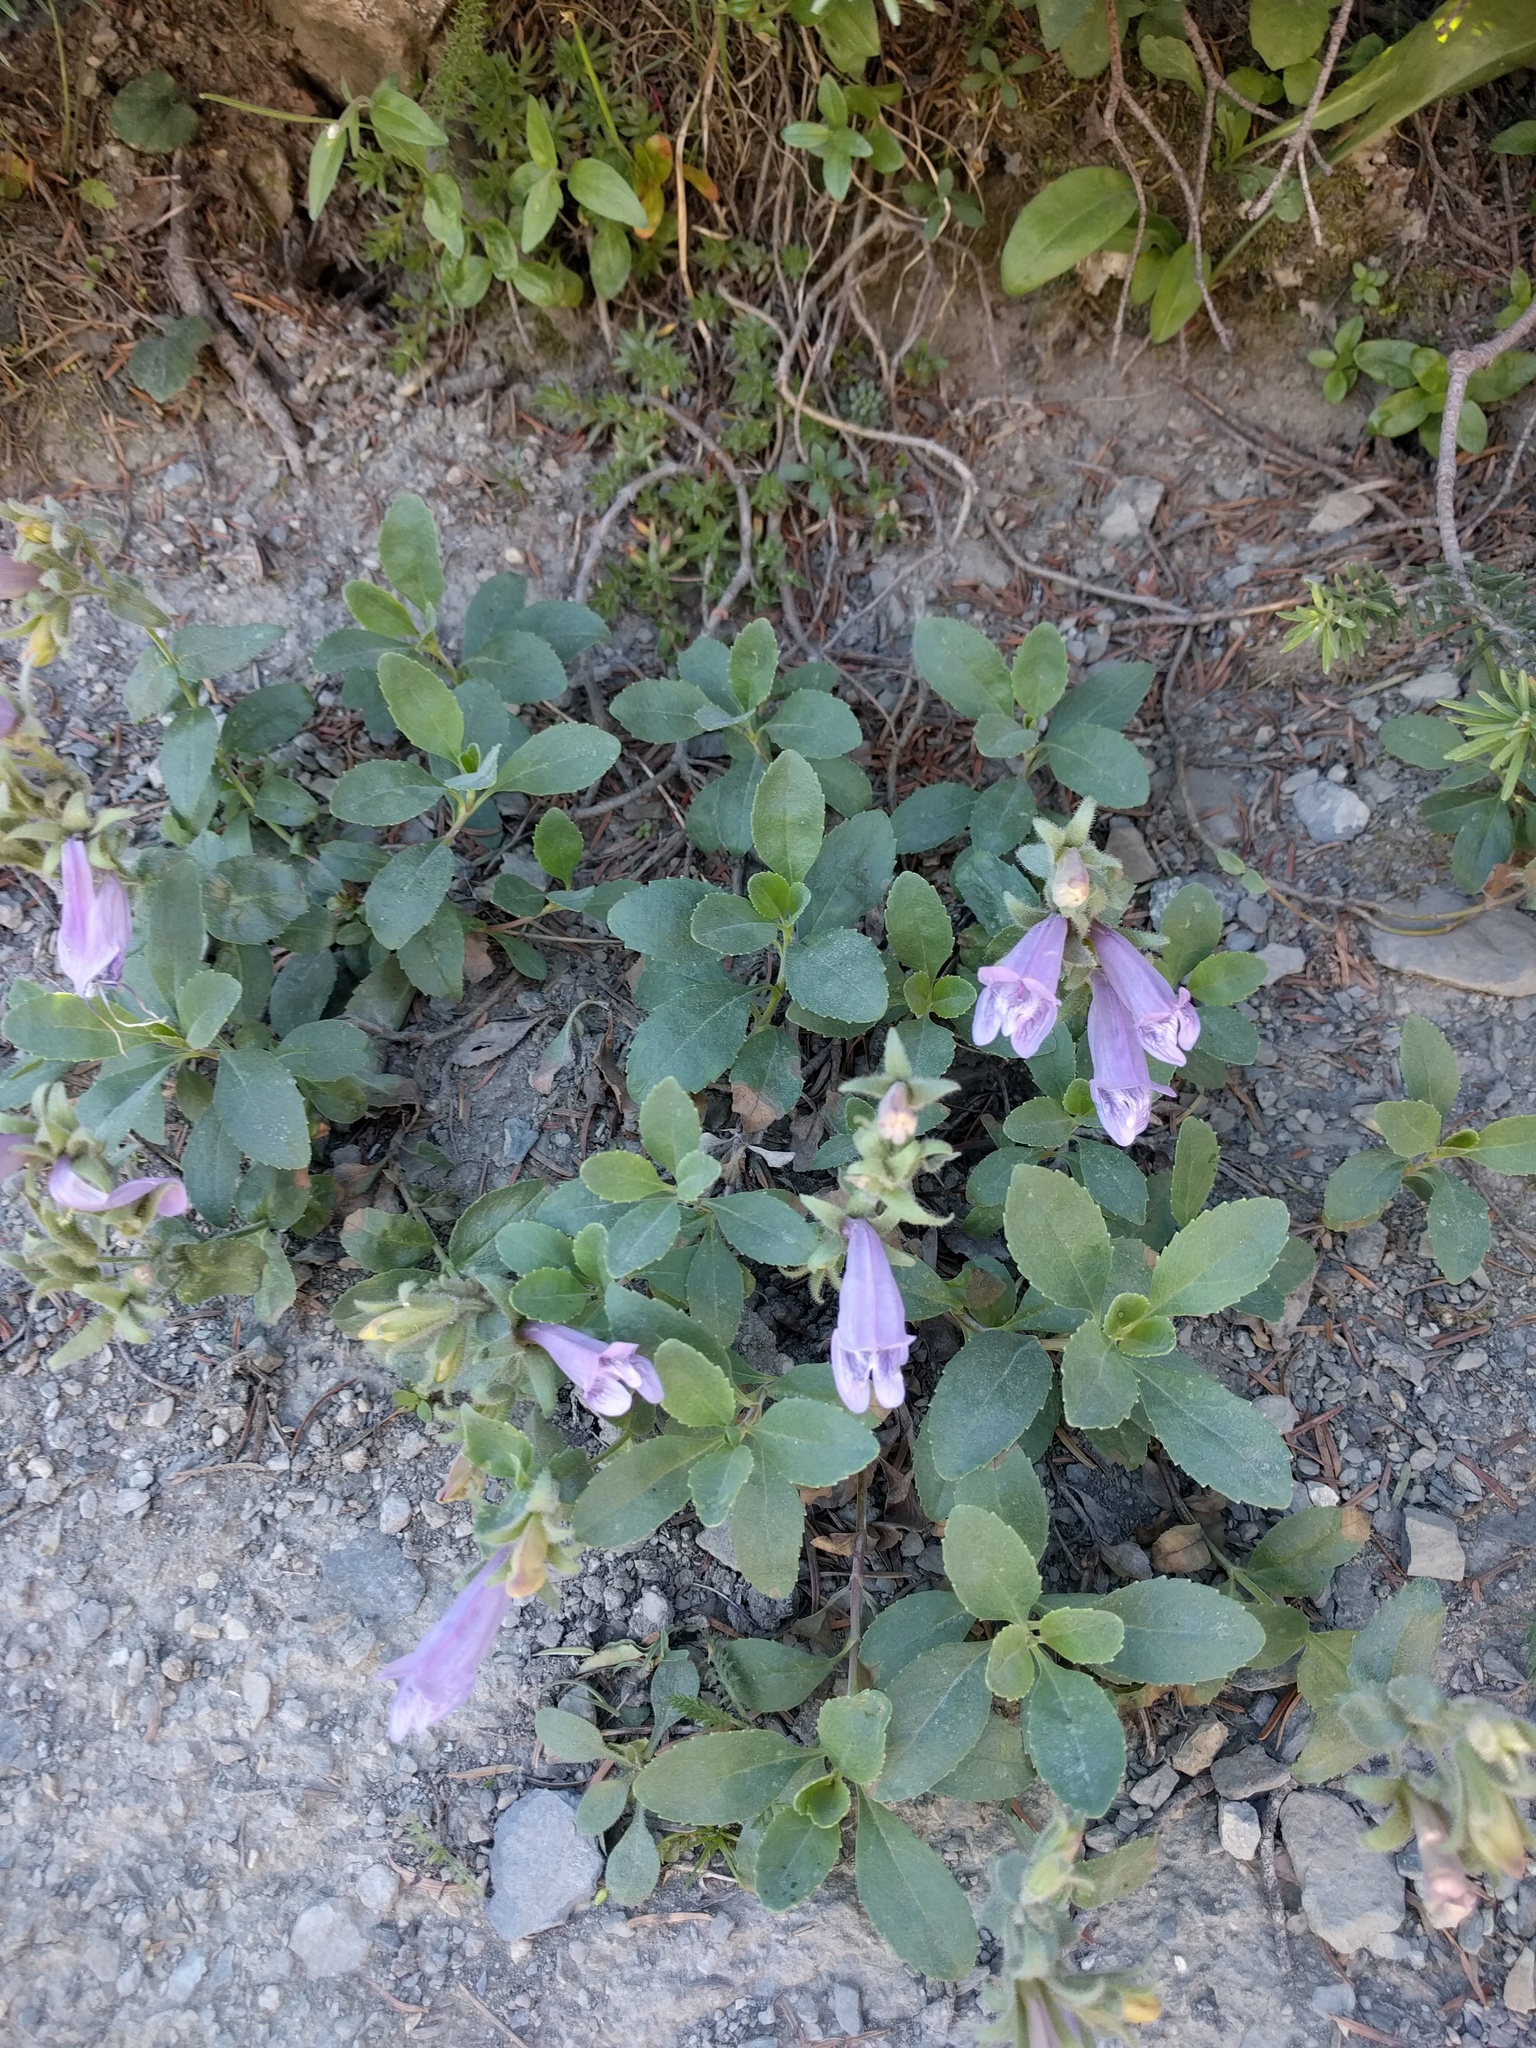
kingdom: Plantae
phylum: Tracheophyta
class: Magnoliopsida
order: Lamiales
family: Plantaginaceae
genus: Penstemon
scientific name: Penstemon ellipticus
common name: Alpine beardtongue
